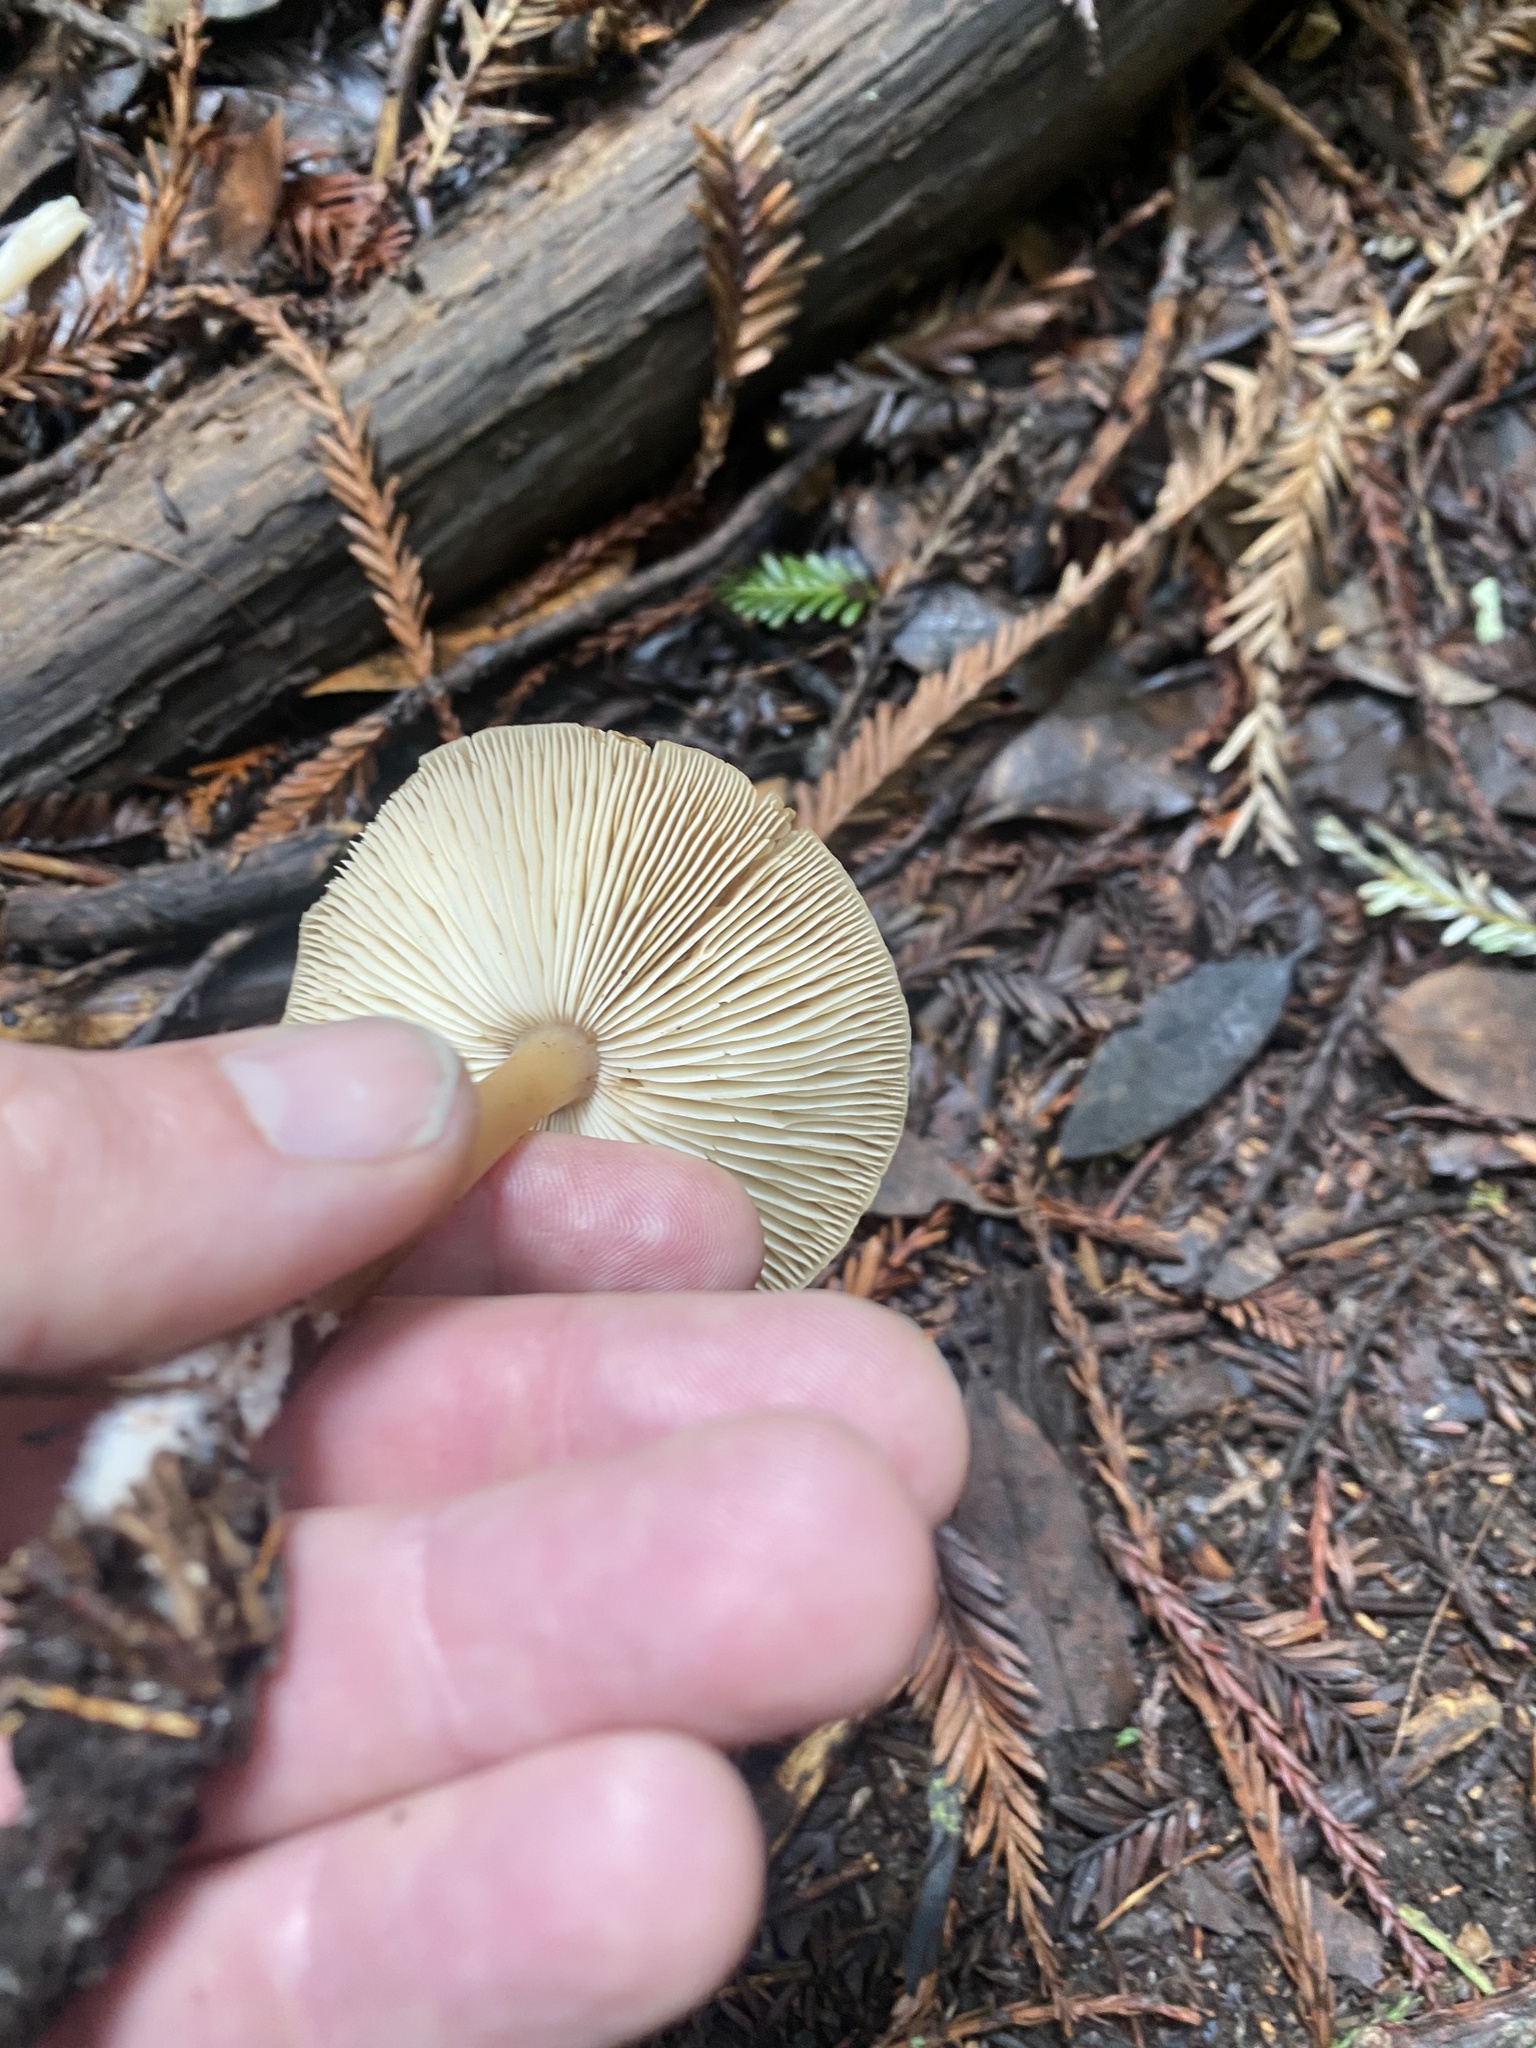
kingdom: Fungi
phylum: Basidiomycota
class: Agaricomycetes
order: Agaricales
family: Tricholomataceae
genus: Caulorhiza
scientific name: Caulorhiza umbonata
